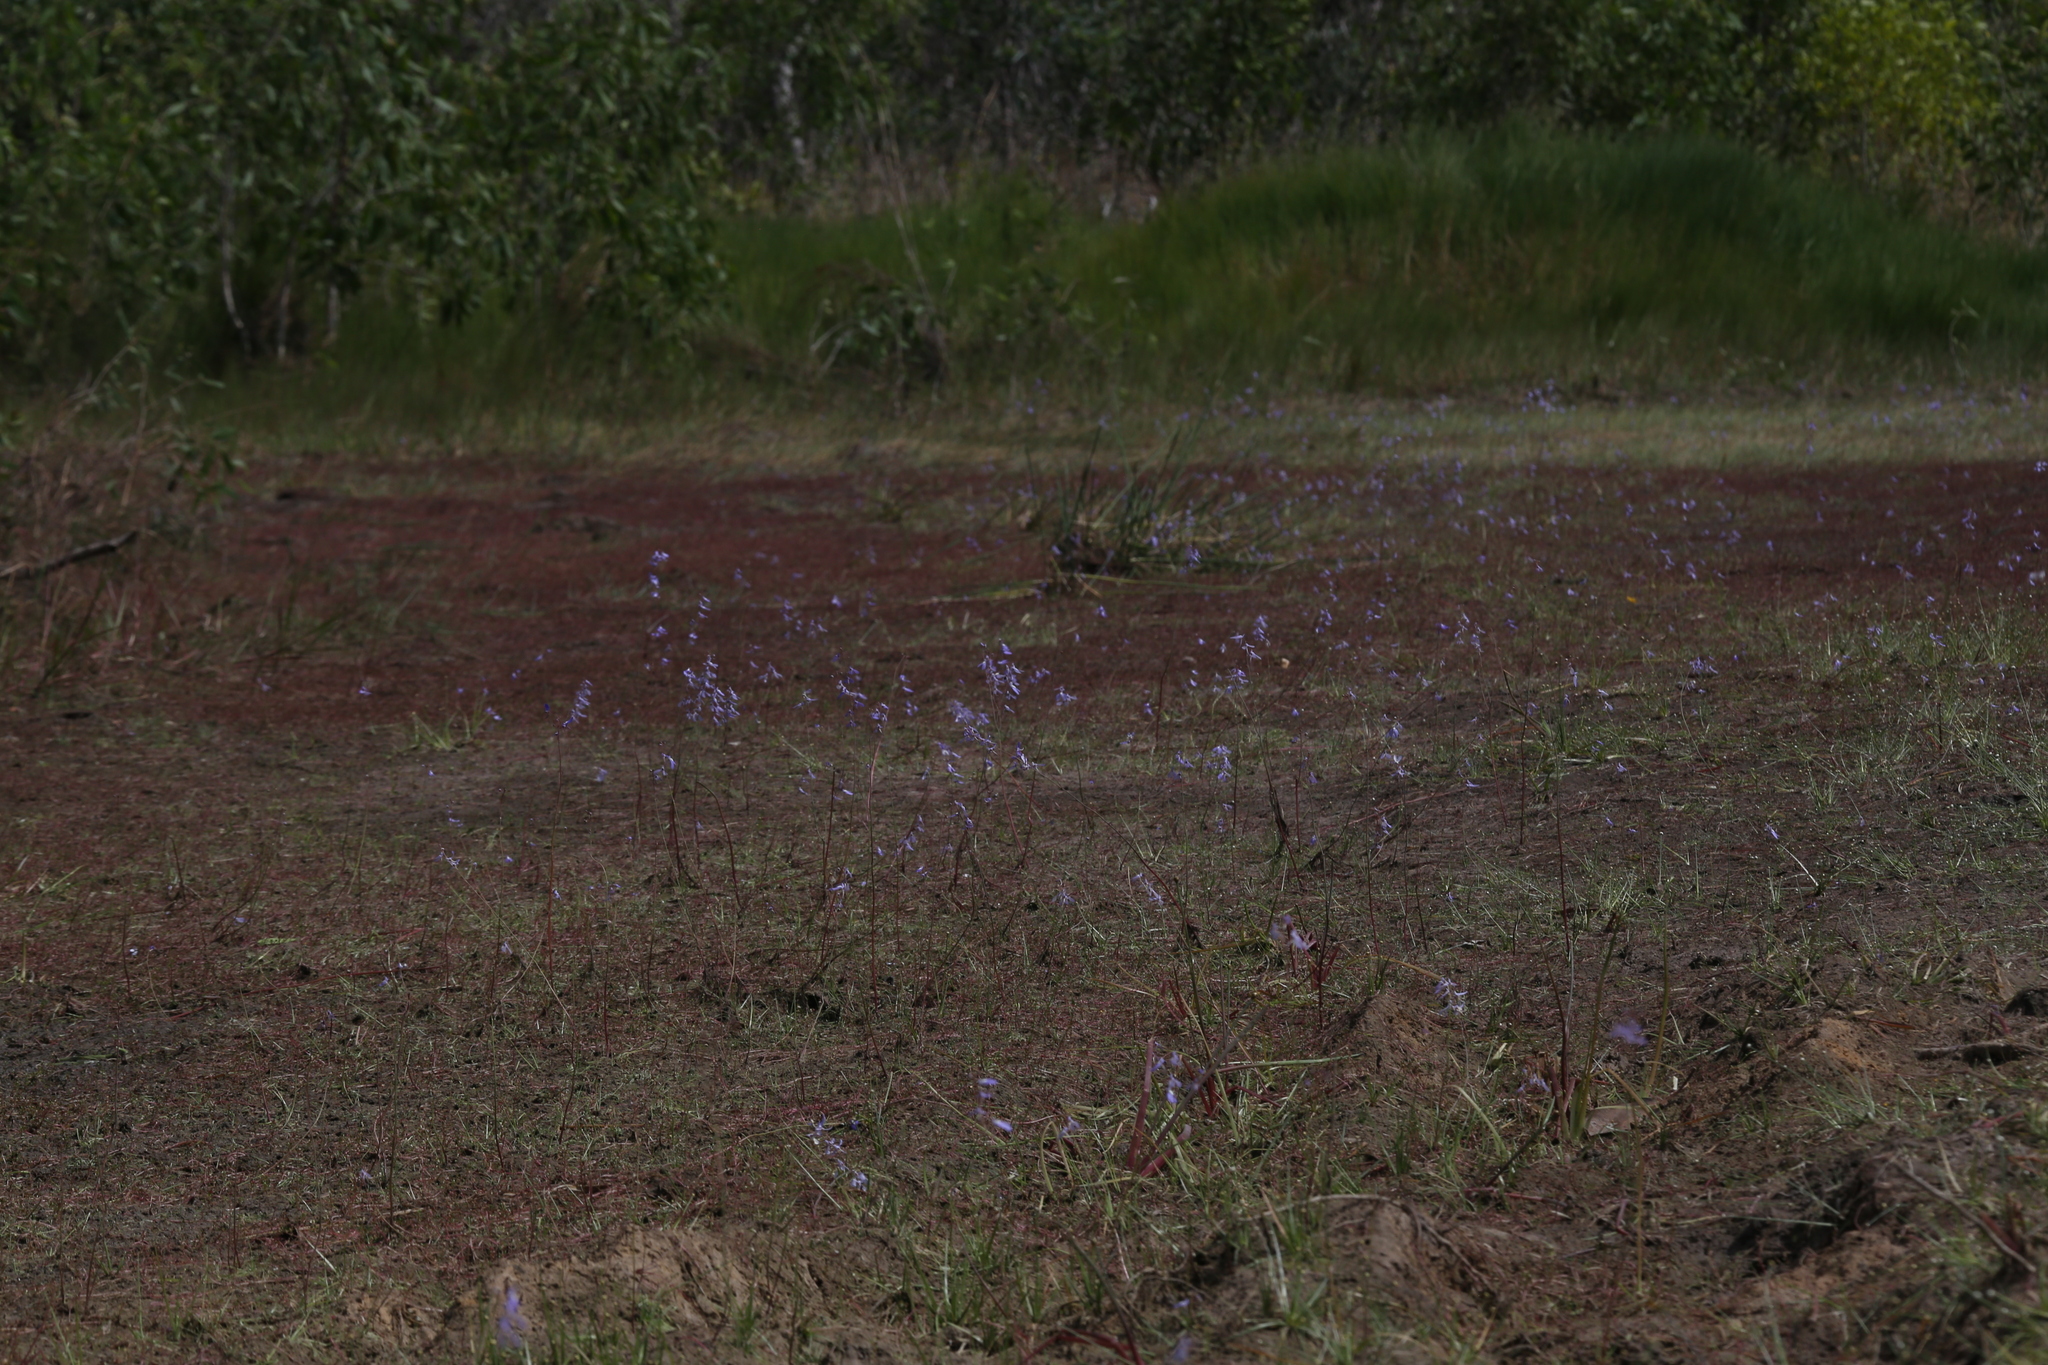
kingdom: Plantae
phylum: Tracheophyta
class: Magnoliopsida
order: Lamiales
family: Lentibulariaceae
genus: Utricularia
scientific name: Utricularia leptoplectra
